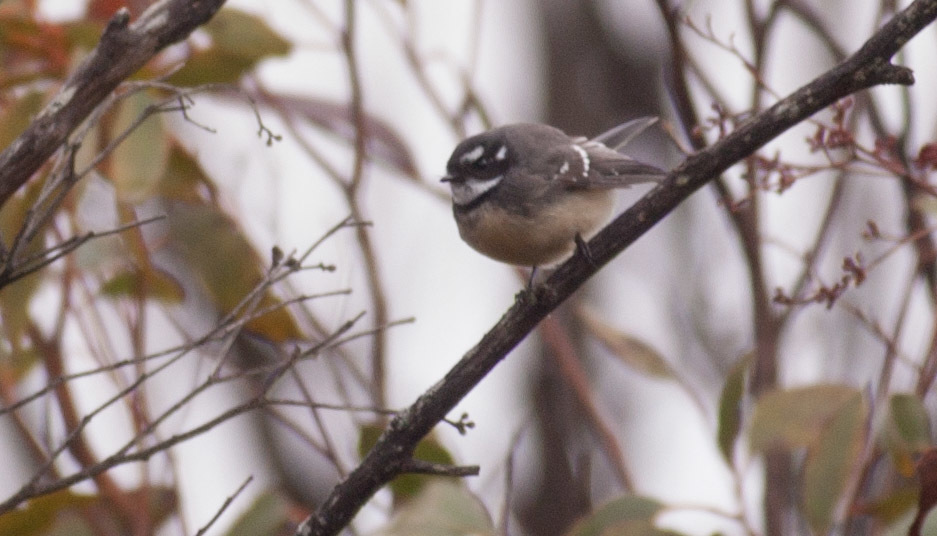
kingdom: Animalia
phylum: Chordata
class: Aves
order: Passeriformes
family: Rhipiduridae
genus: Rhipidura
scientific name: Rhipidura albiscapa
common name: Grey fantail
